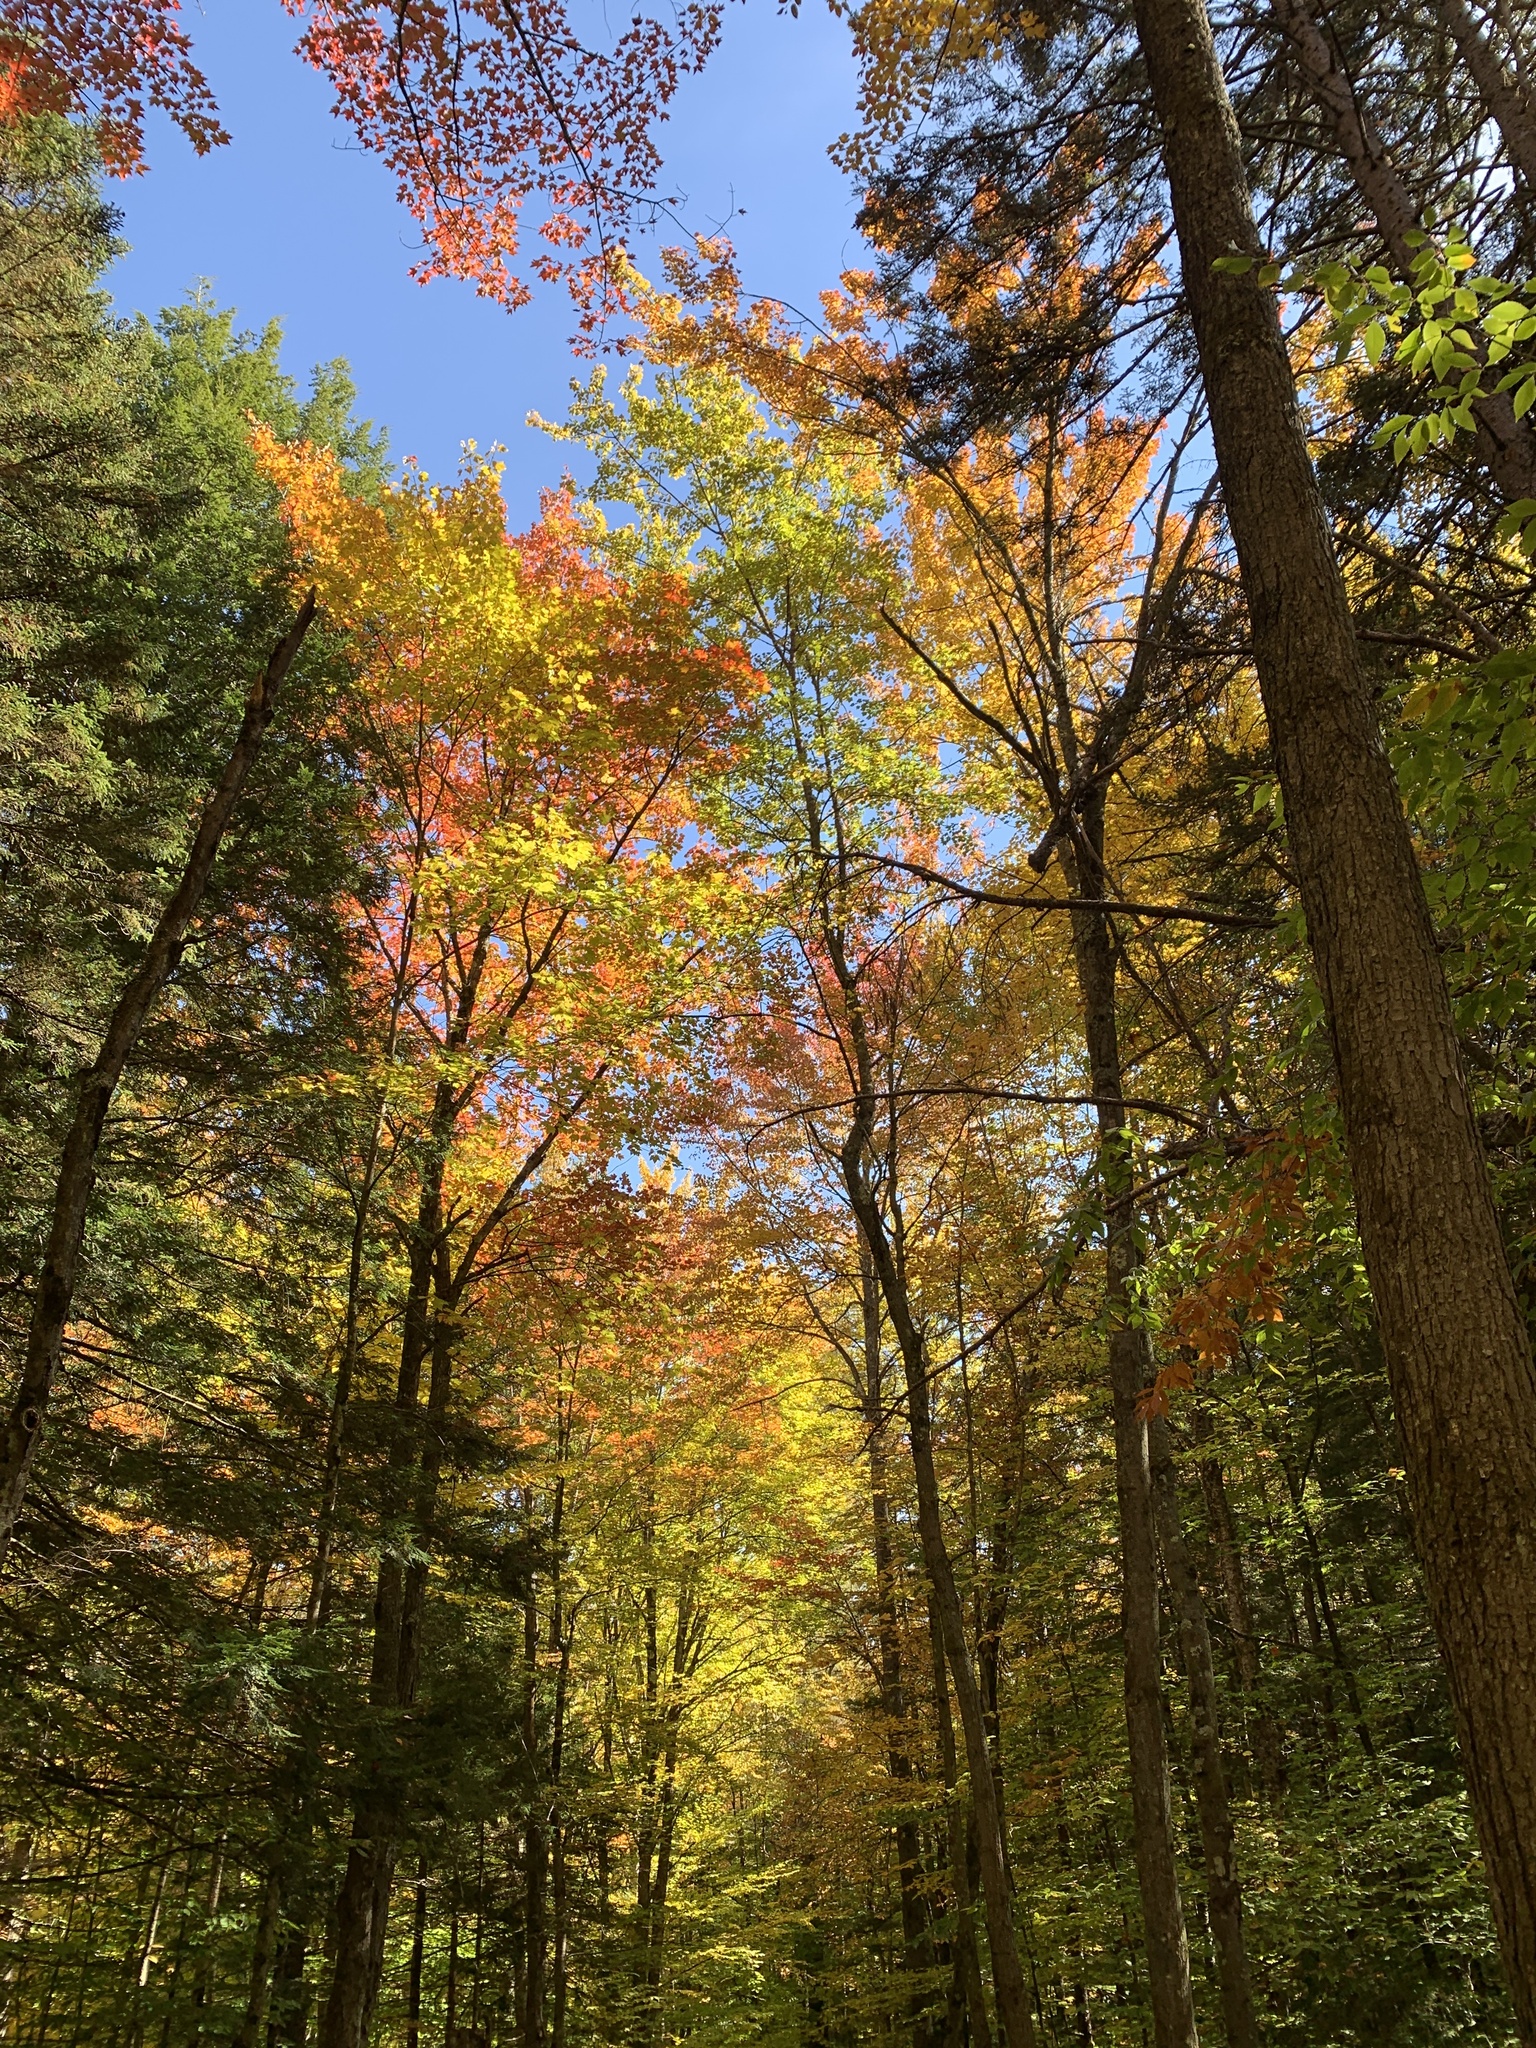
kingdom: Plantae
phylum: Tracheophyta
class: Magnoliopsida
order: Sapindales
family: Sapindaceae
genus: Acer
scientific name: Acer rubrum
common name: Red maple
